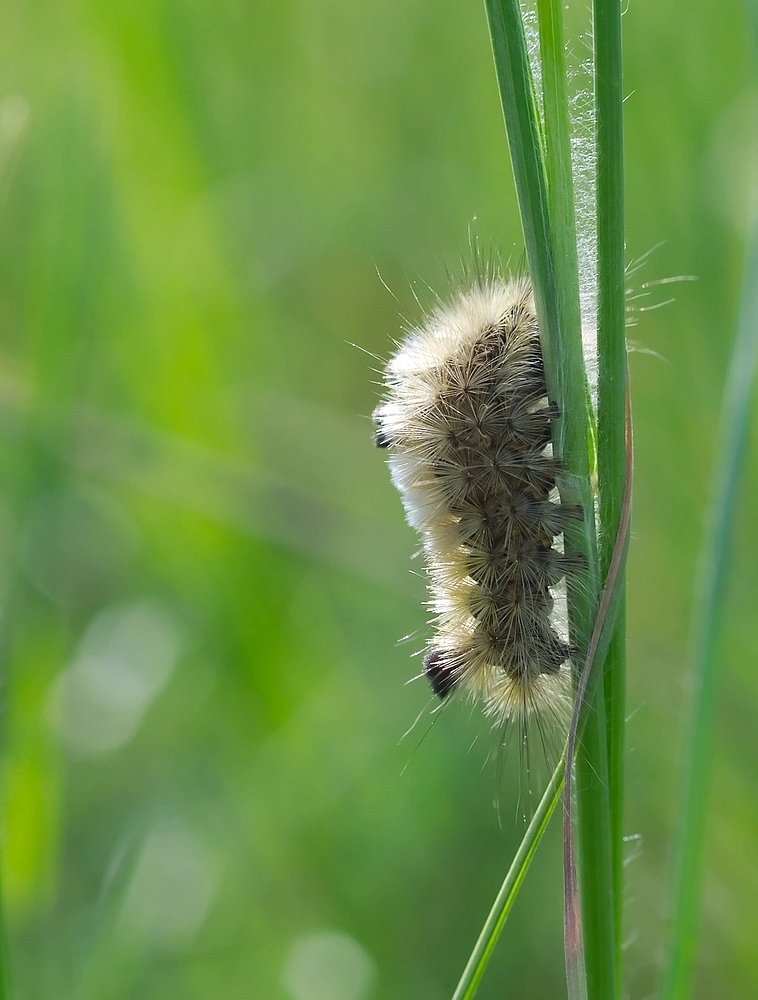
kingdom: Animalia
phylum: Arthropoda
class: Insecta
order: Lepidoptera
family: Erebidae
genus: Calliteara
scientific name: Calliteara Dicallomera fascelina
